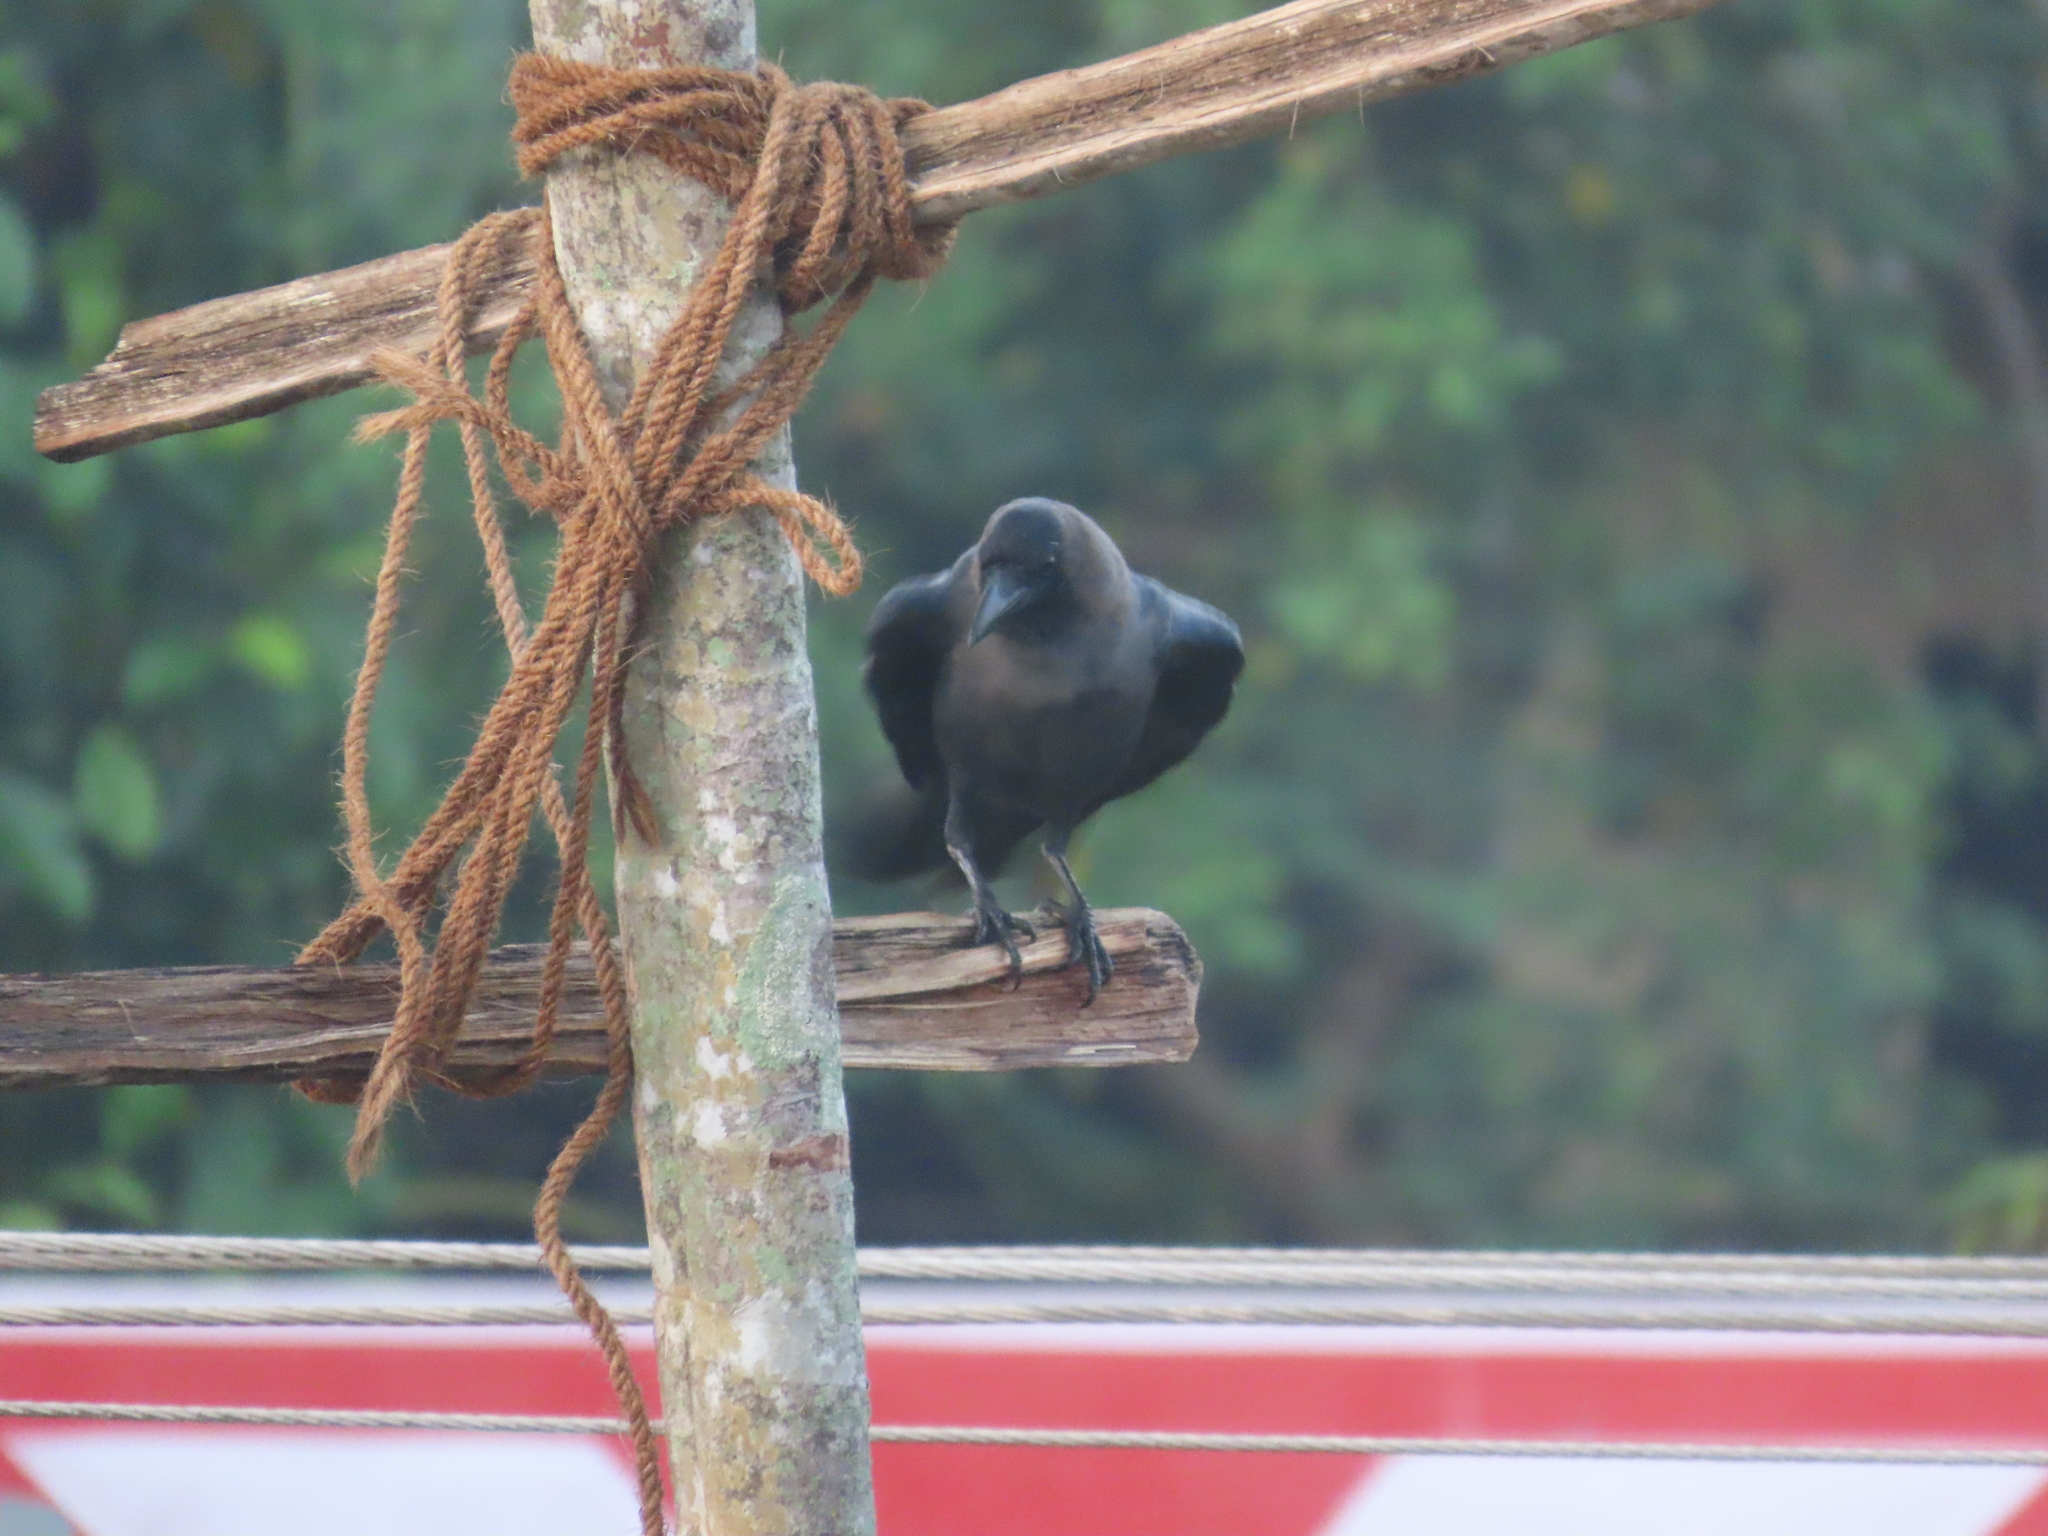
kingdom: Animalia
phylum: Chordata
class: Aves
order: Passeriformes
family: Corvidae
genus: Corvus
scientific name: Corvus splendens
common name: House crow
